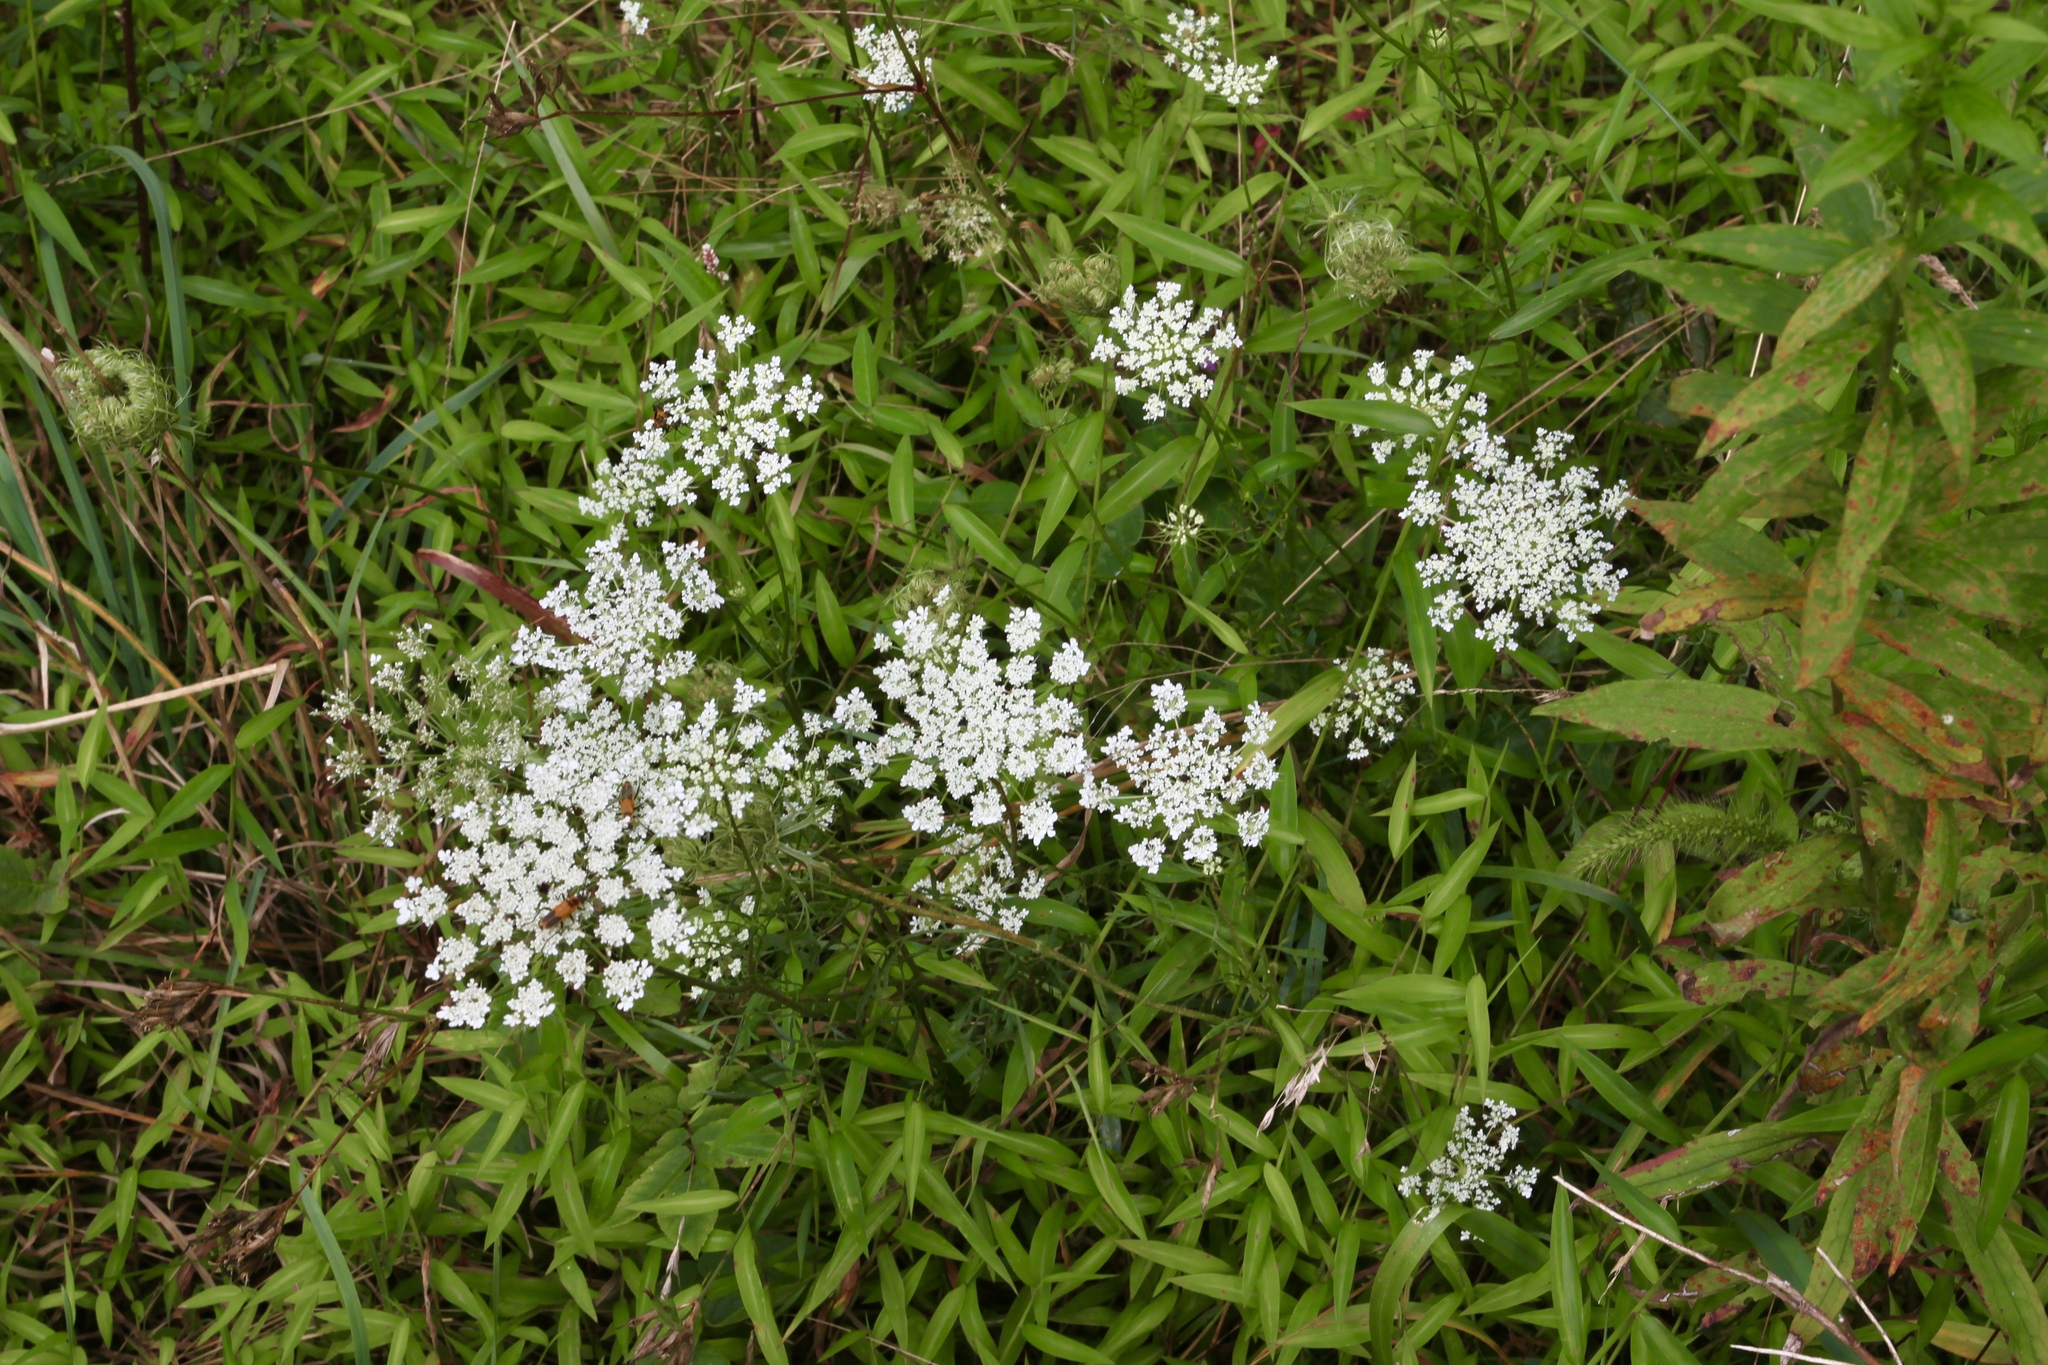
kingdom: Plantae
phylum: Tracheophyta
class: Magnoliopsida
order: Apiales
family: Apiaceae
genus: Daucus
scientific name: Daucus carota
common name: Wild carrot
